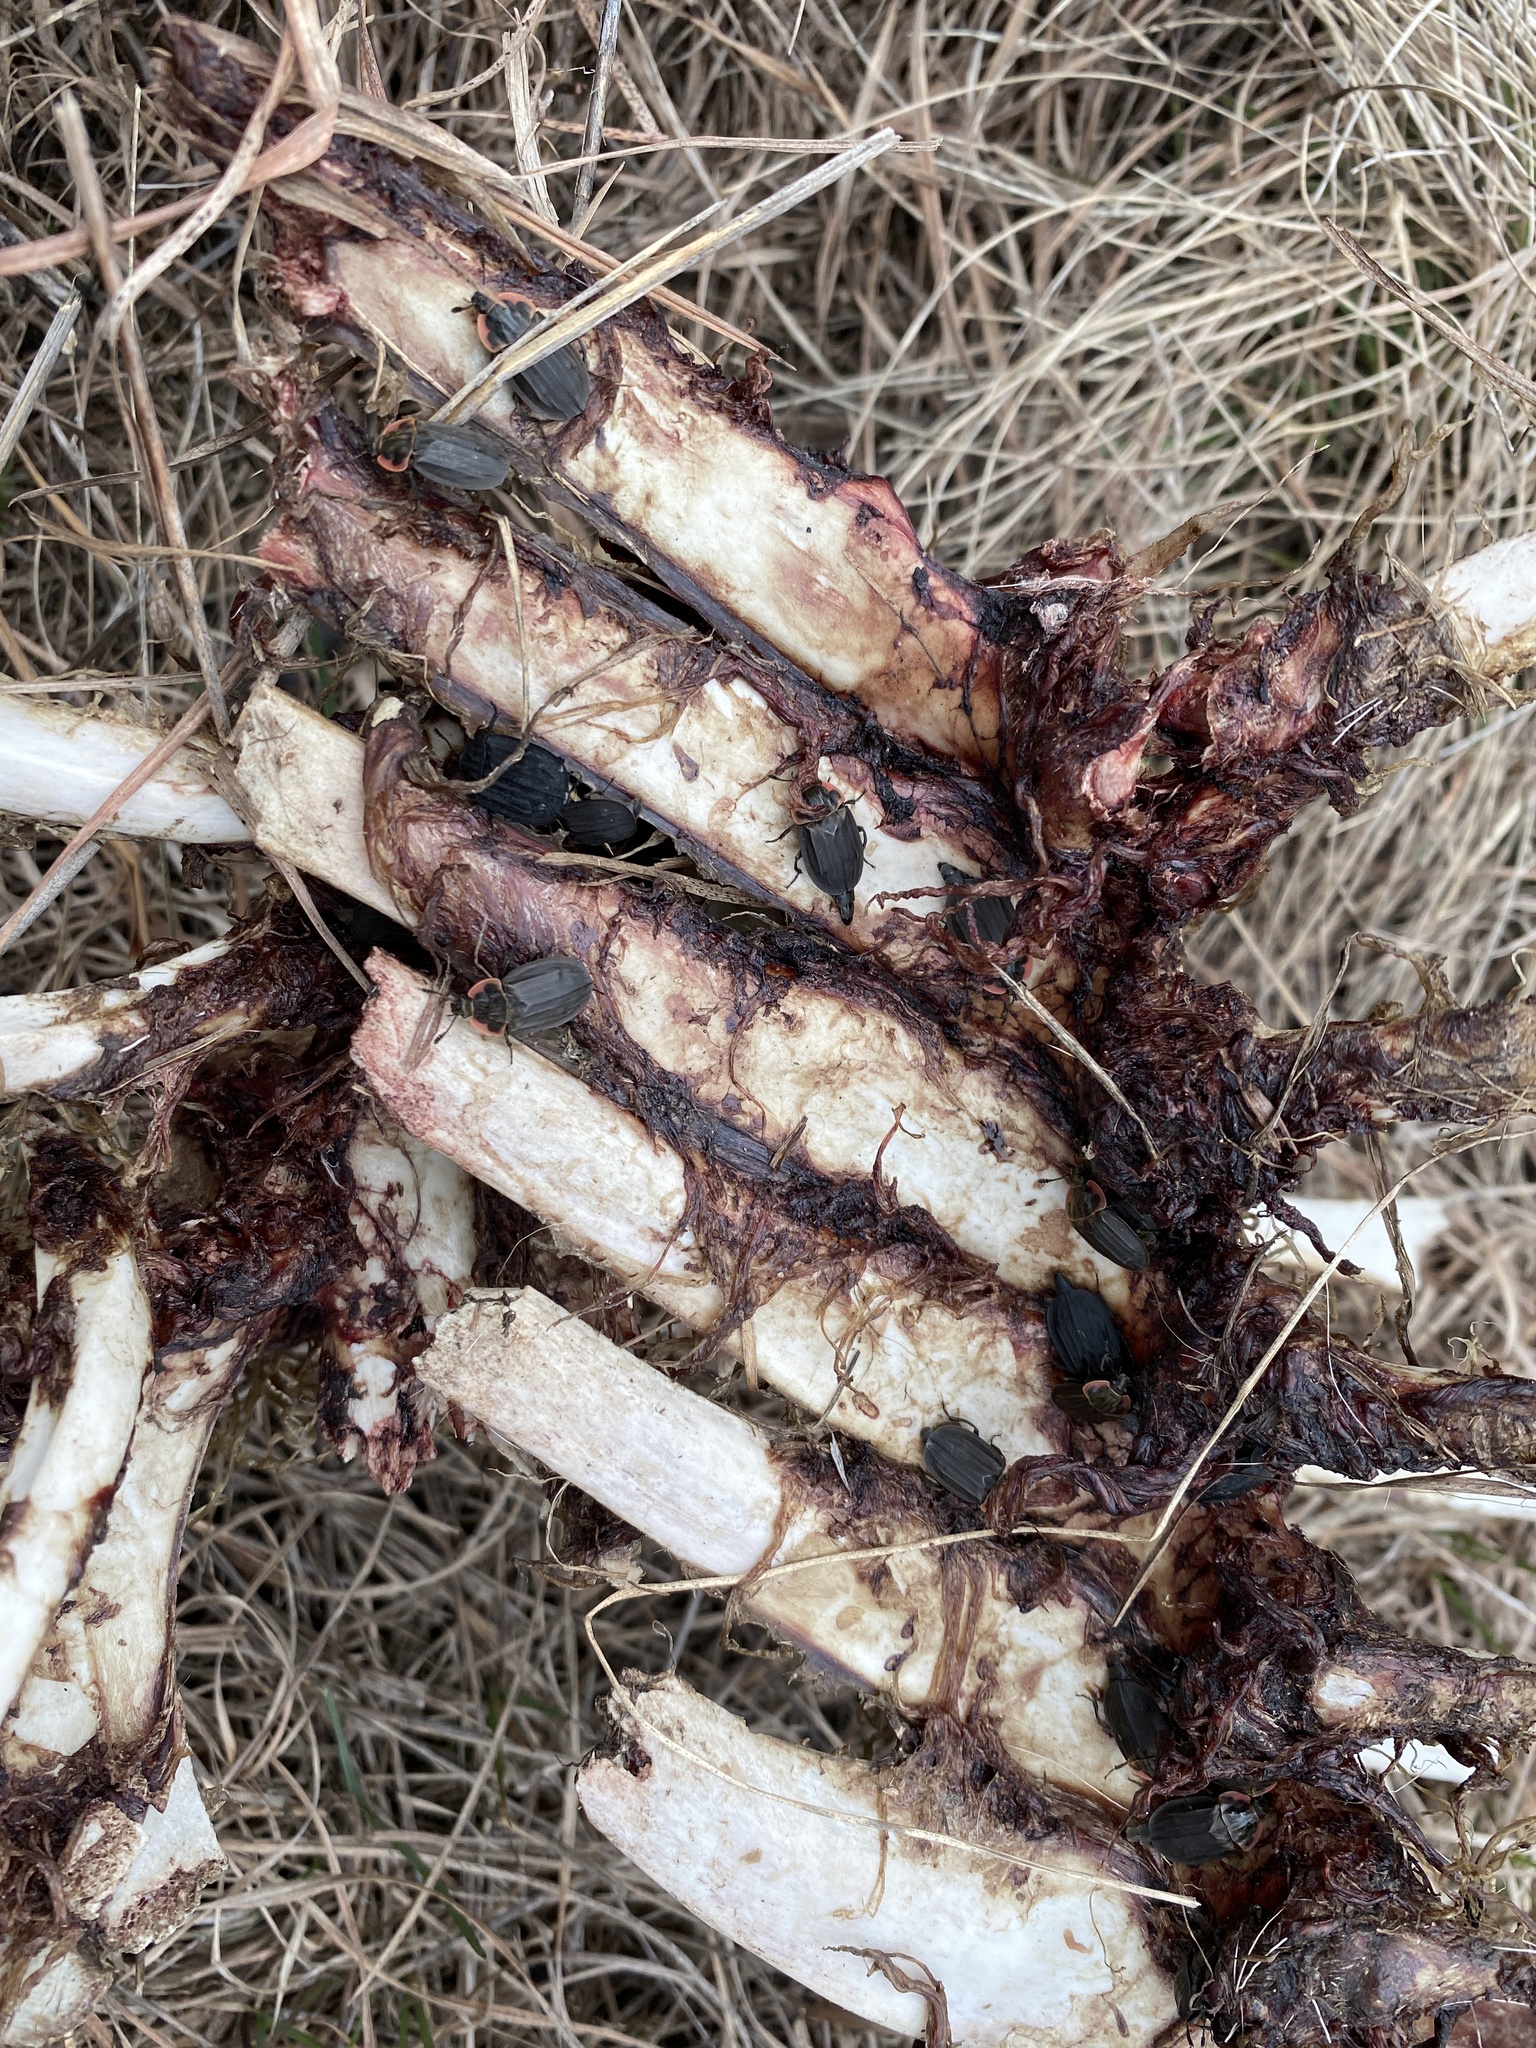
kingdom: Animalia
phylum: Arthropoda
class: Insecta
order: Coleoptera
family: Staphylinidae
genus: Oiceoptoma
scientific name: Oiceoptoma noveboracense
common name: Margined carrion beetle
